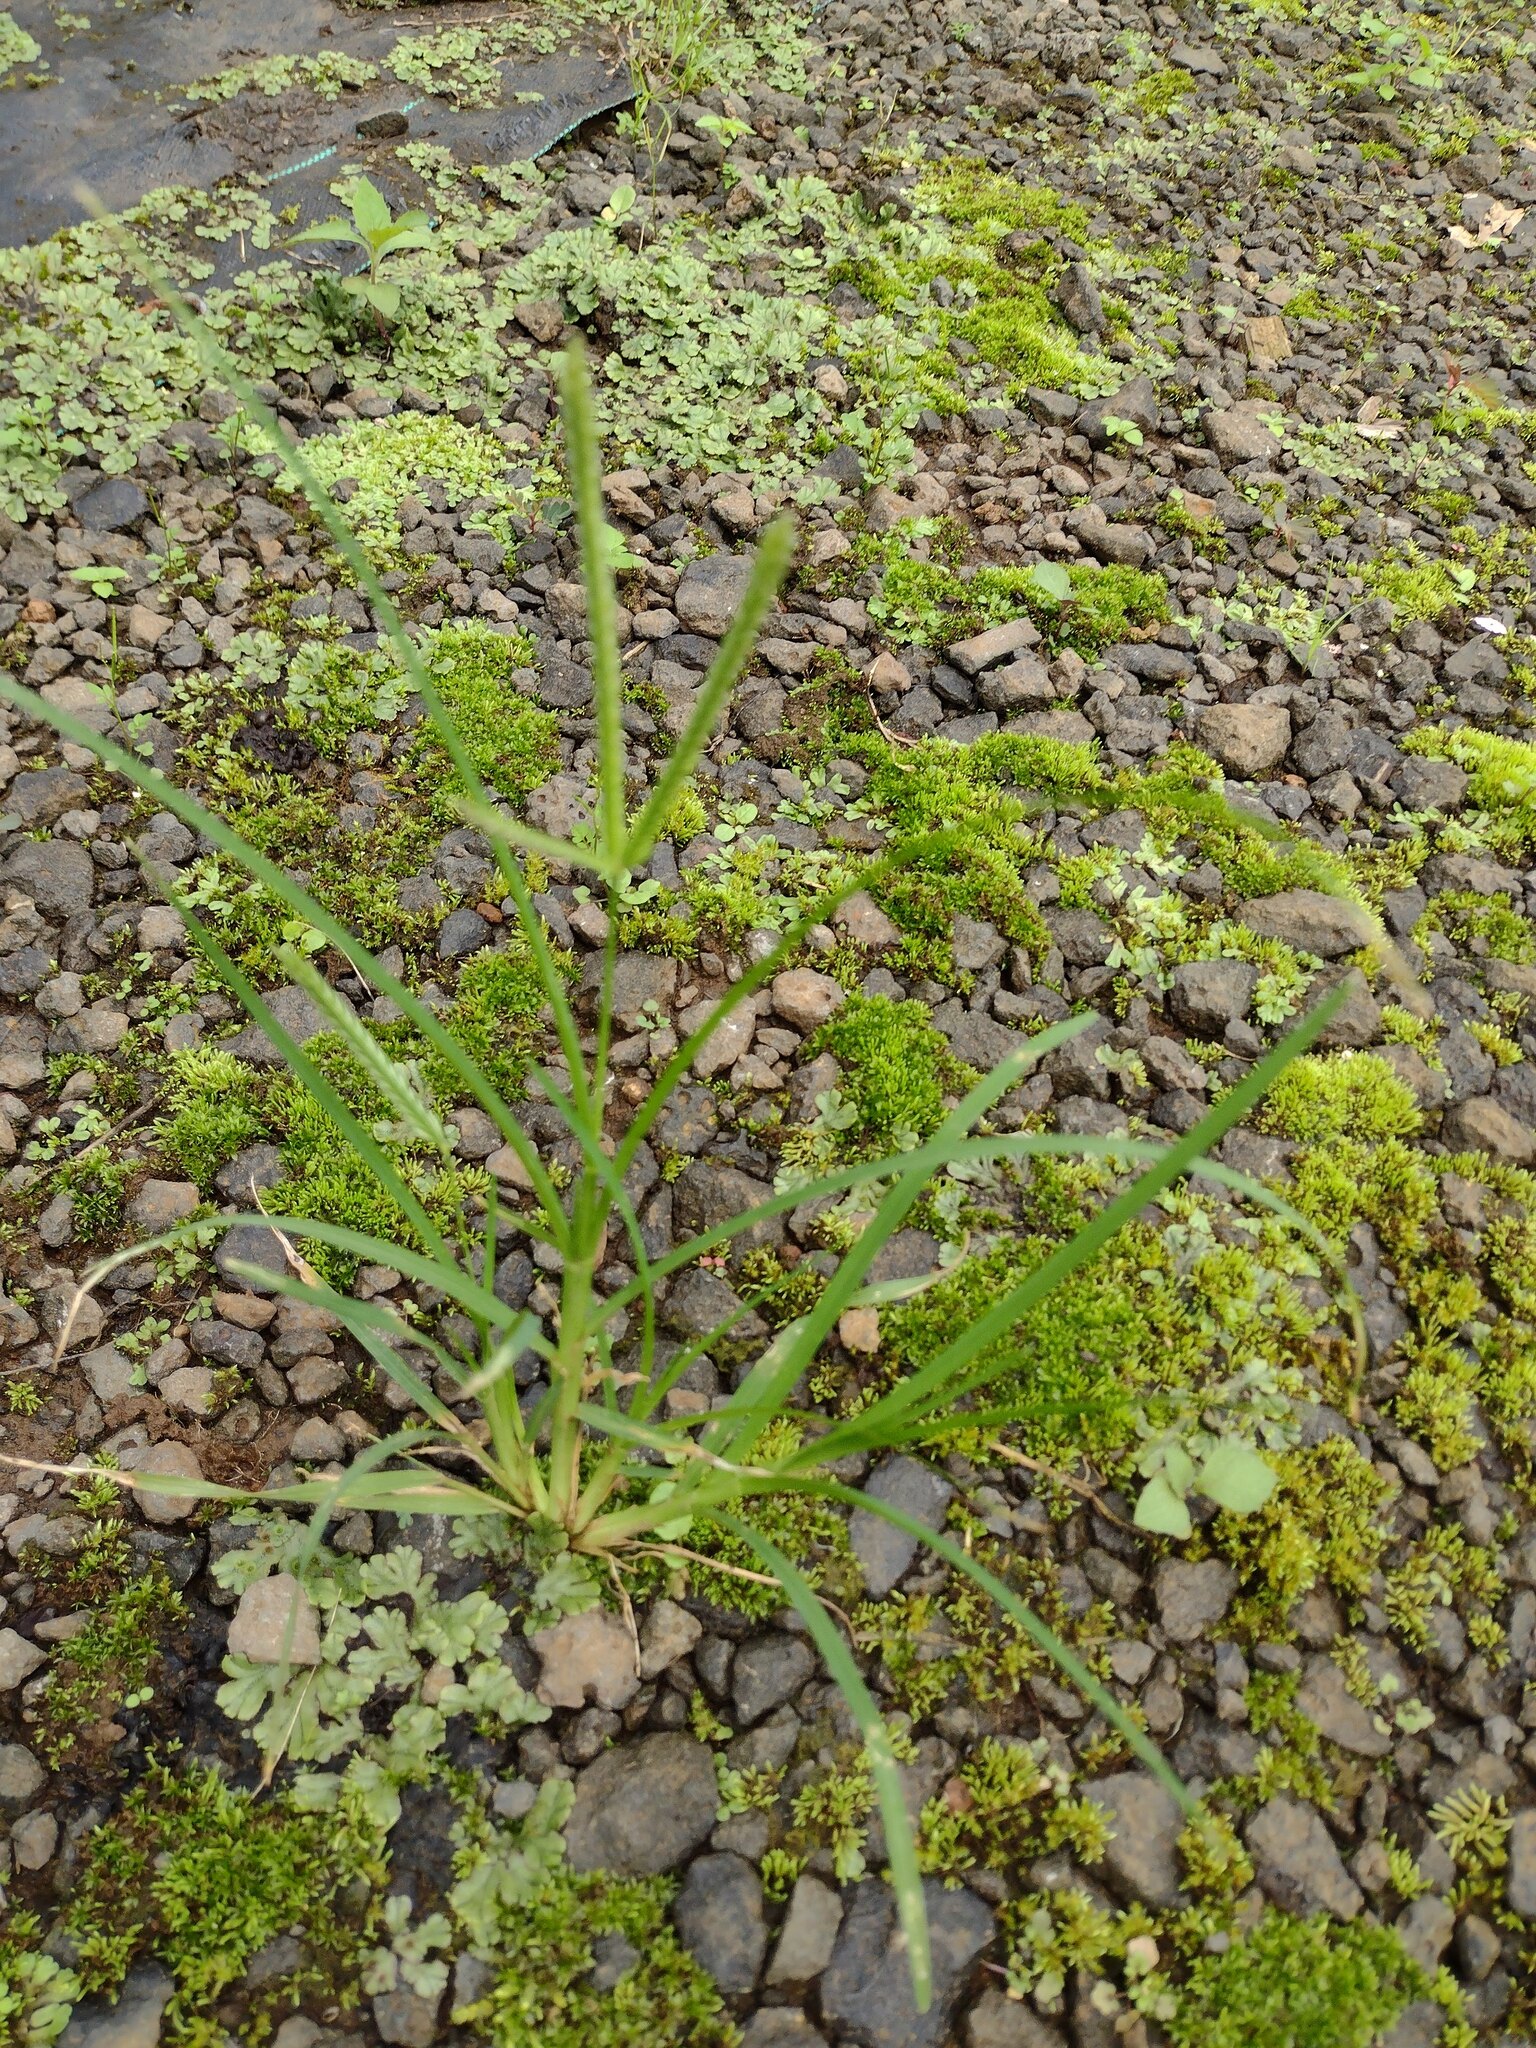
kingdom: Plantae
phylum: Tracheophyta
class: Liliopsida
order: Poales
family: Poaceae
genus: Eleusine
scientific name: Eleusine indica
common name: Yard-grass
